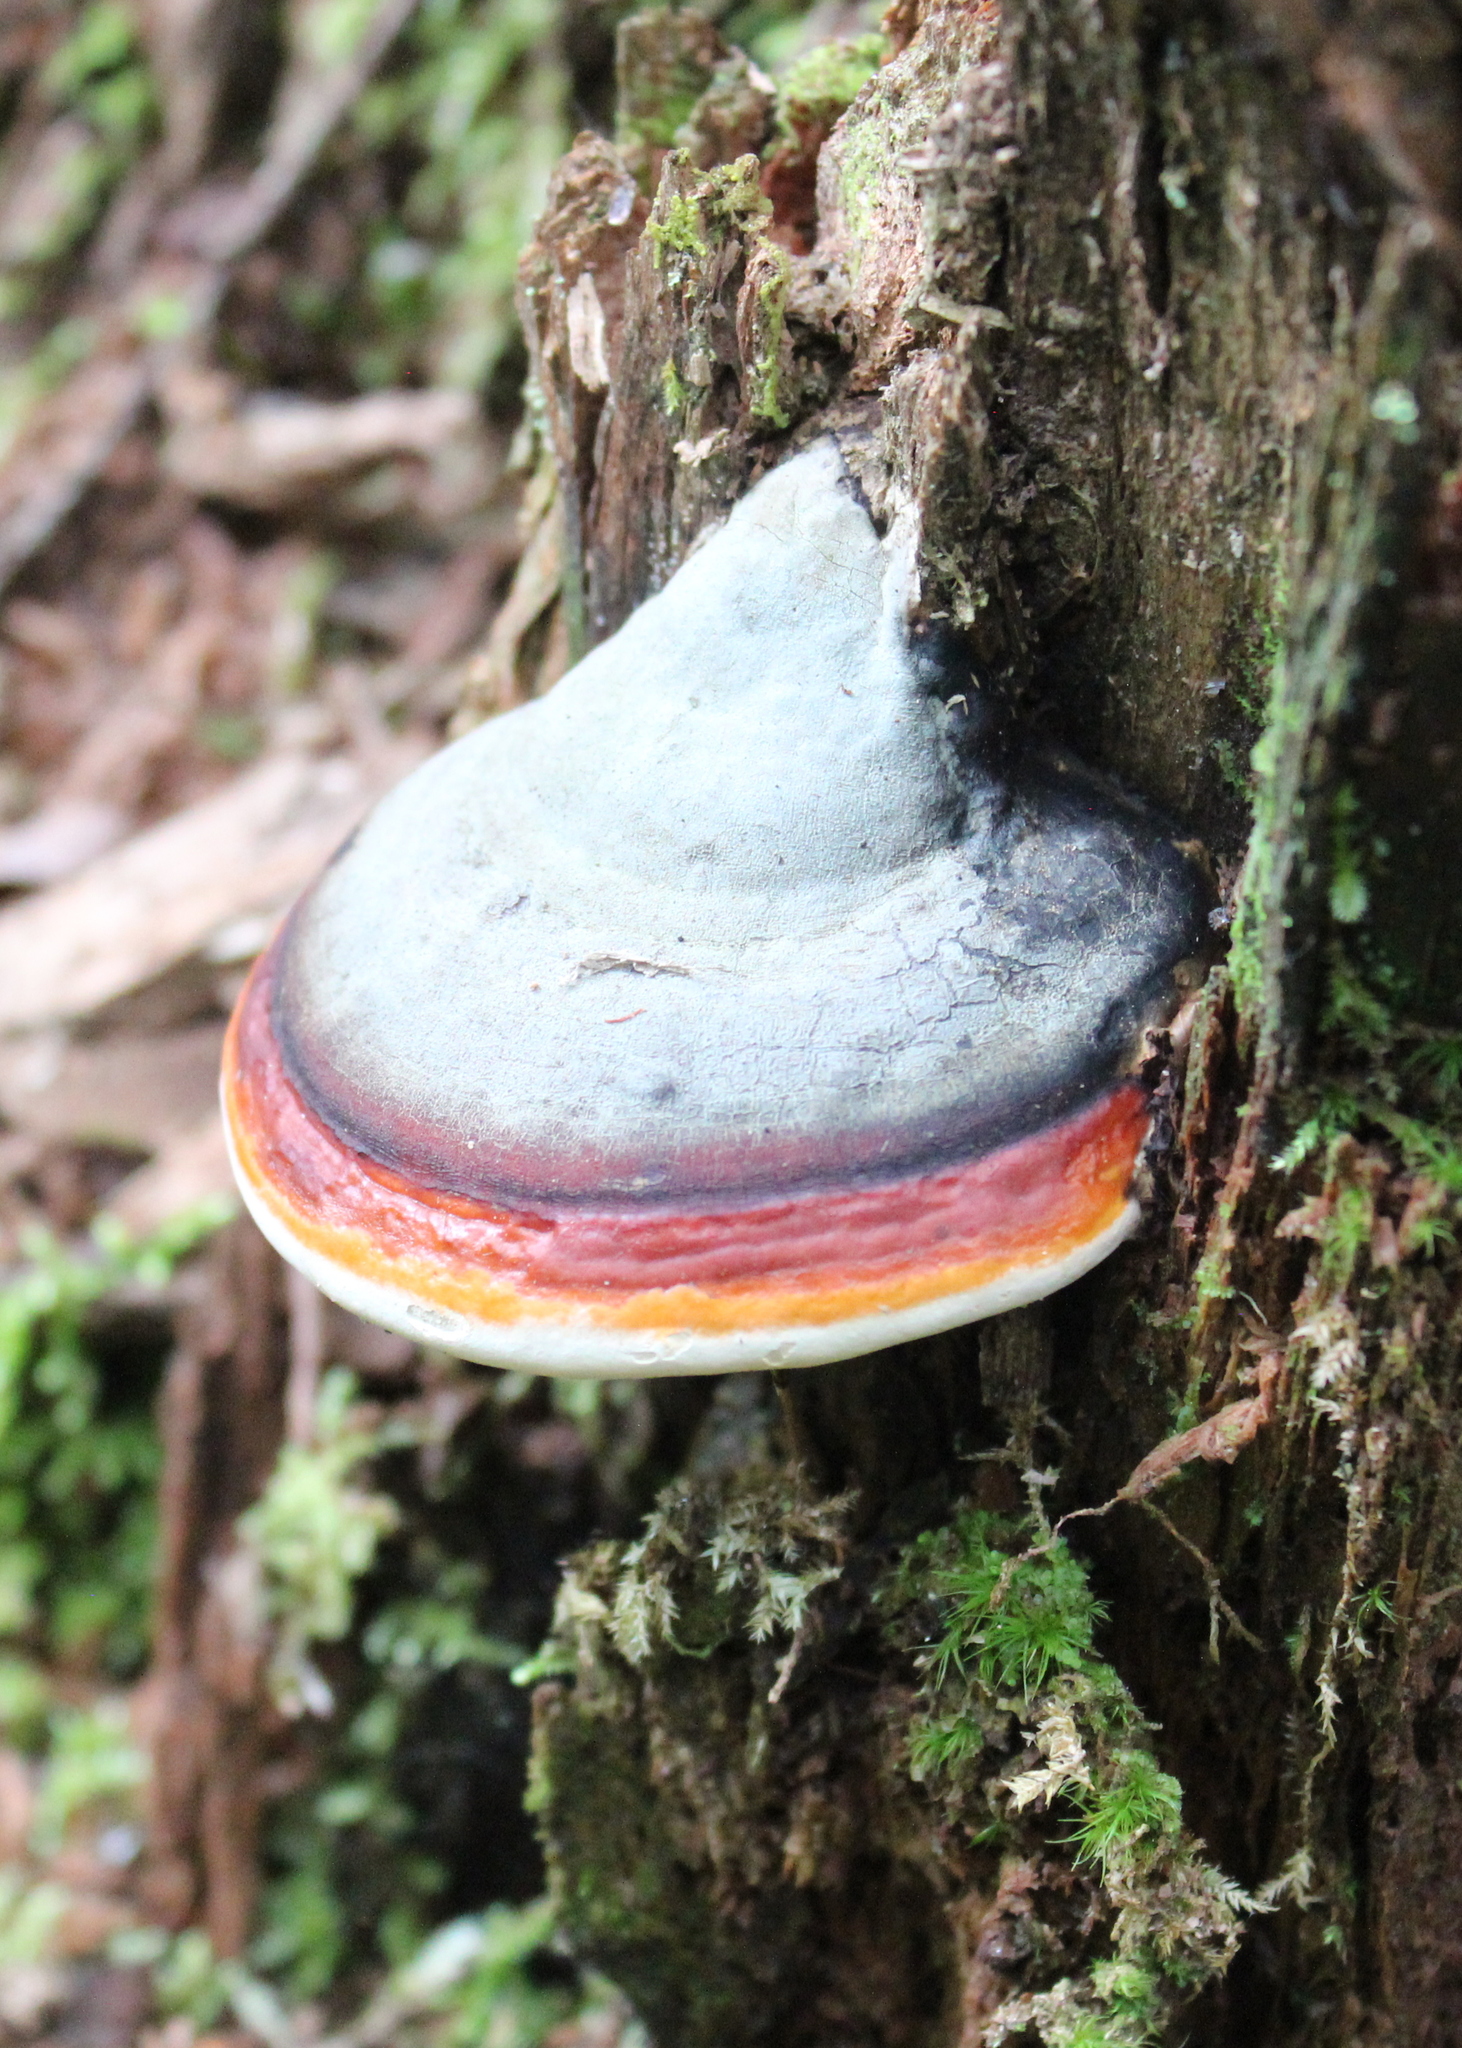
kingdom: Fungi
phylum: Basidiomycota
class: Agaricomycetes
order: Polyporales
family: Fomitopsidaceae
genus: Fomitopsis
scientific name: Fomitopsis mounceae
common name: Northern red belt
